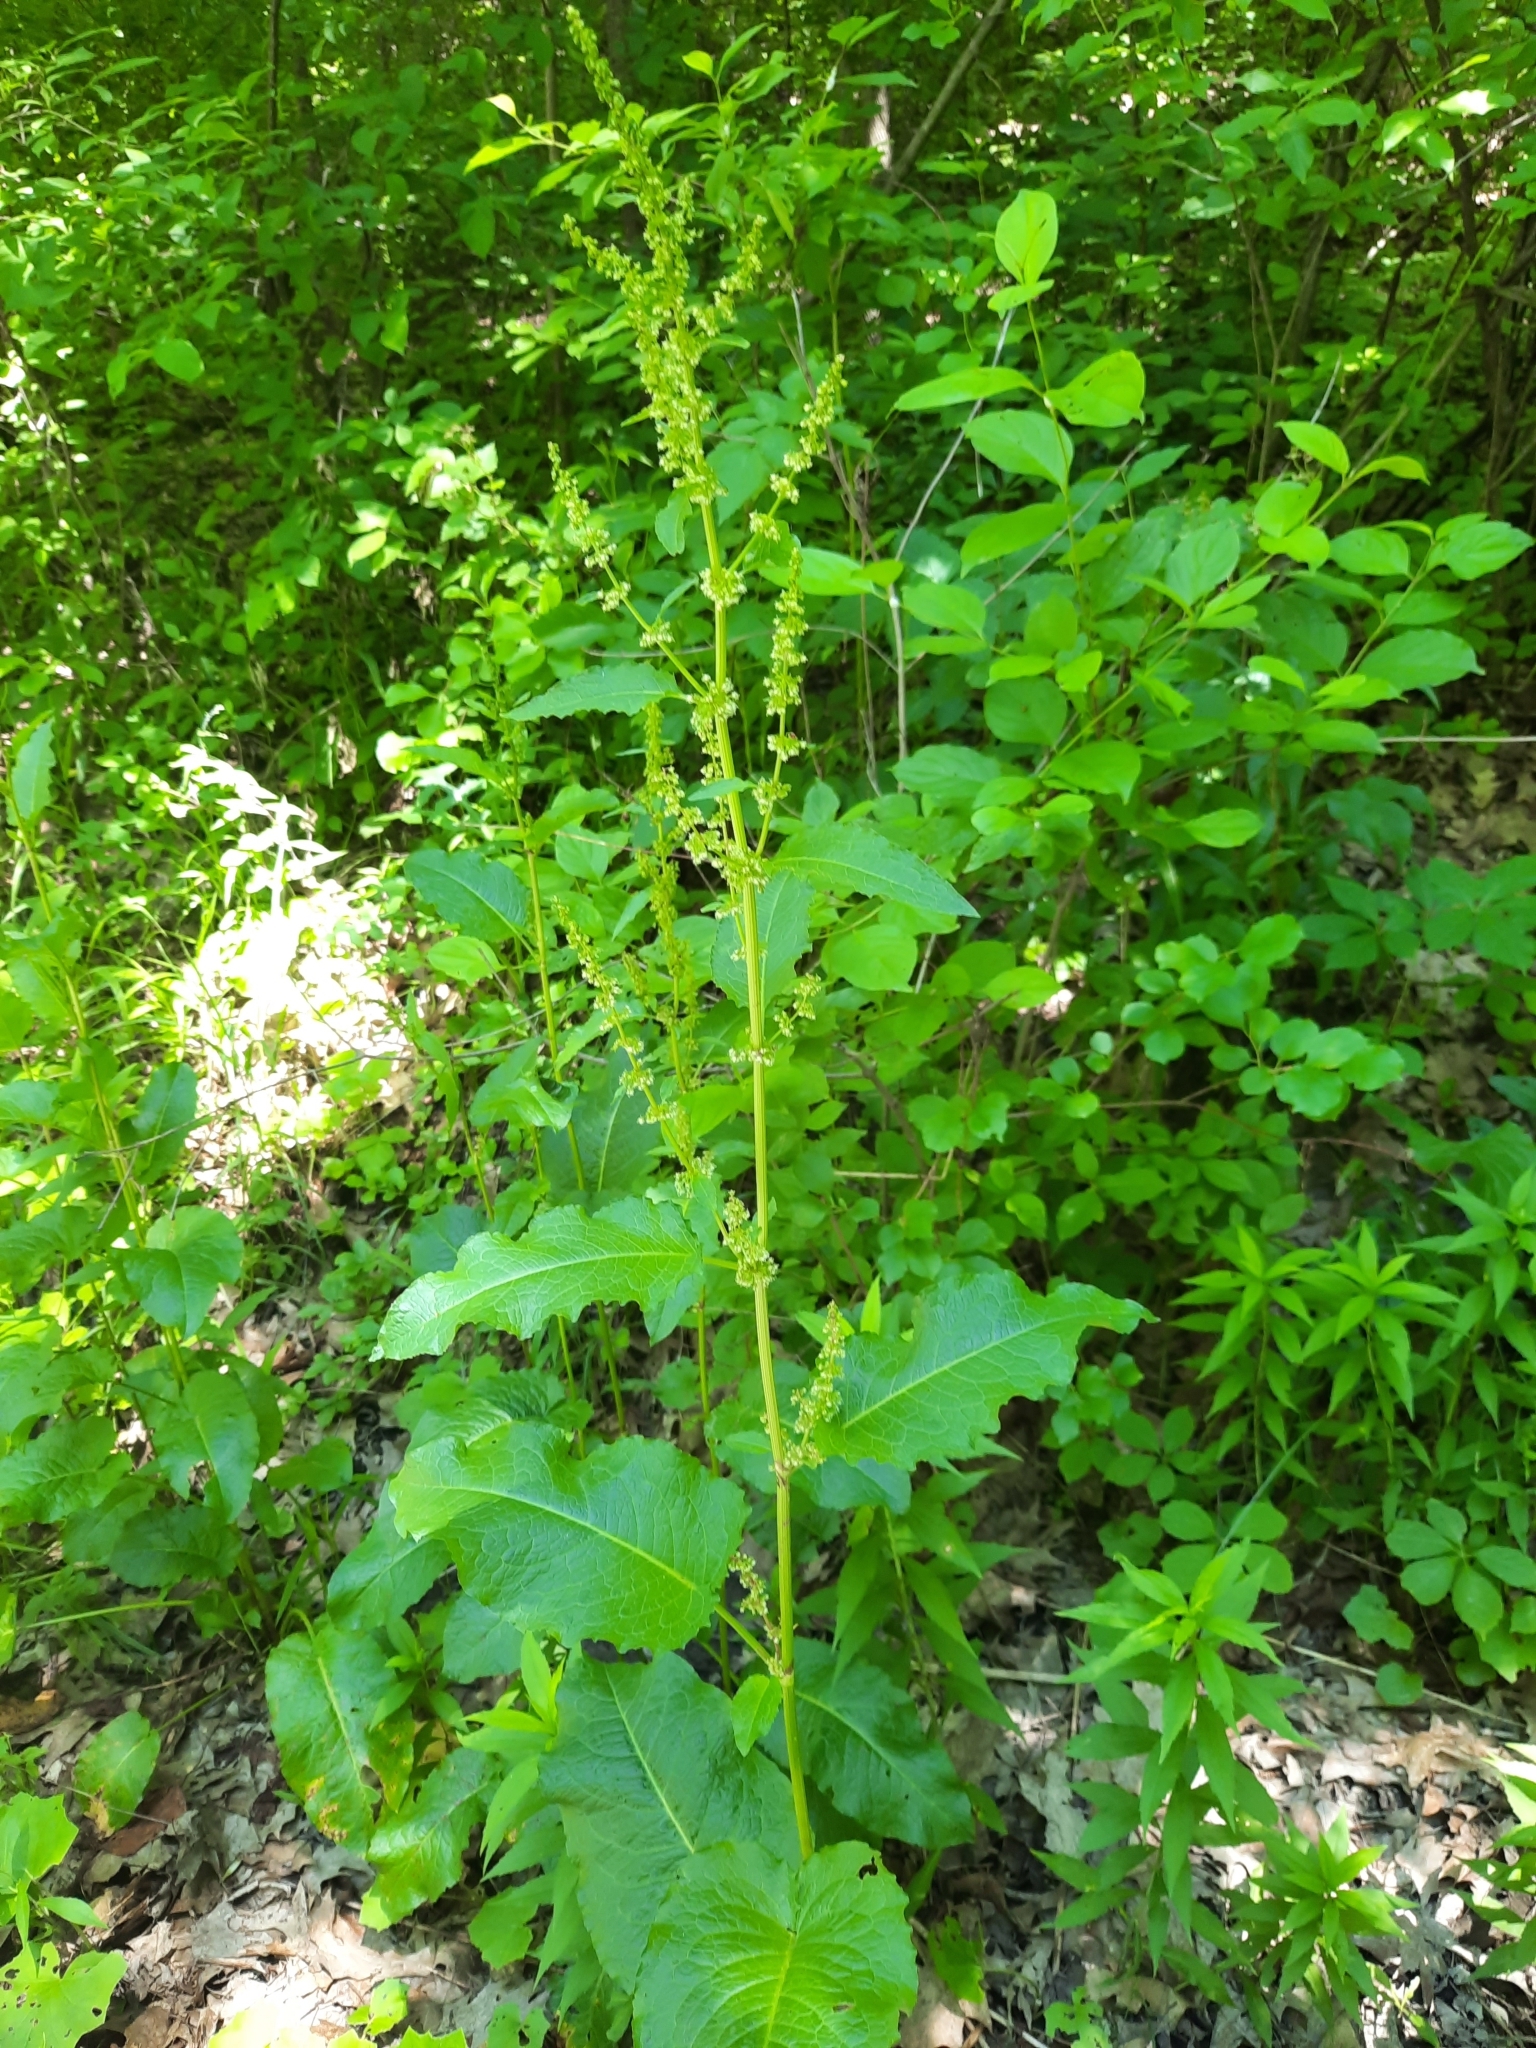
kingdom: Plantae
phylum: Tracheophyta
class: Magnoliopsida
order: Caryophyllales
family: Polygonaceae
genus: Rumex
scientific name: Rumex obtusifolius
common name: Bitter dock
